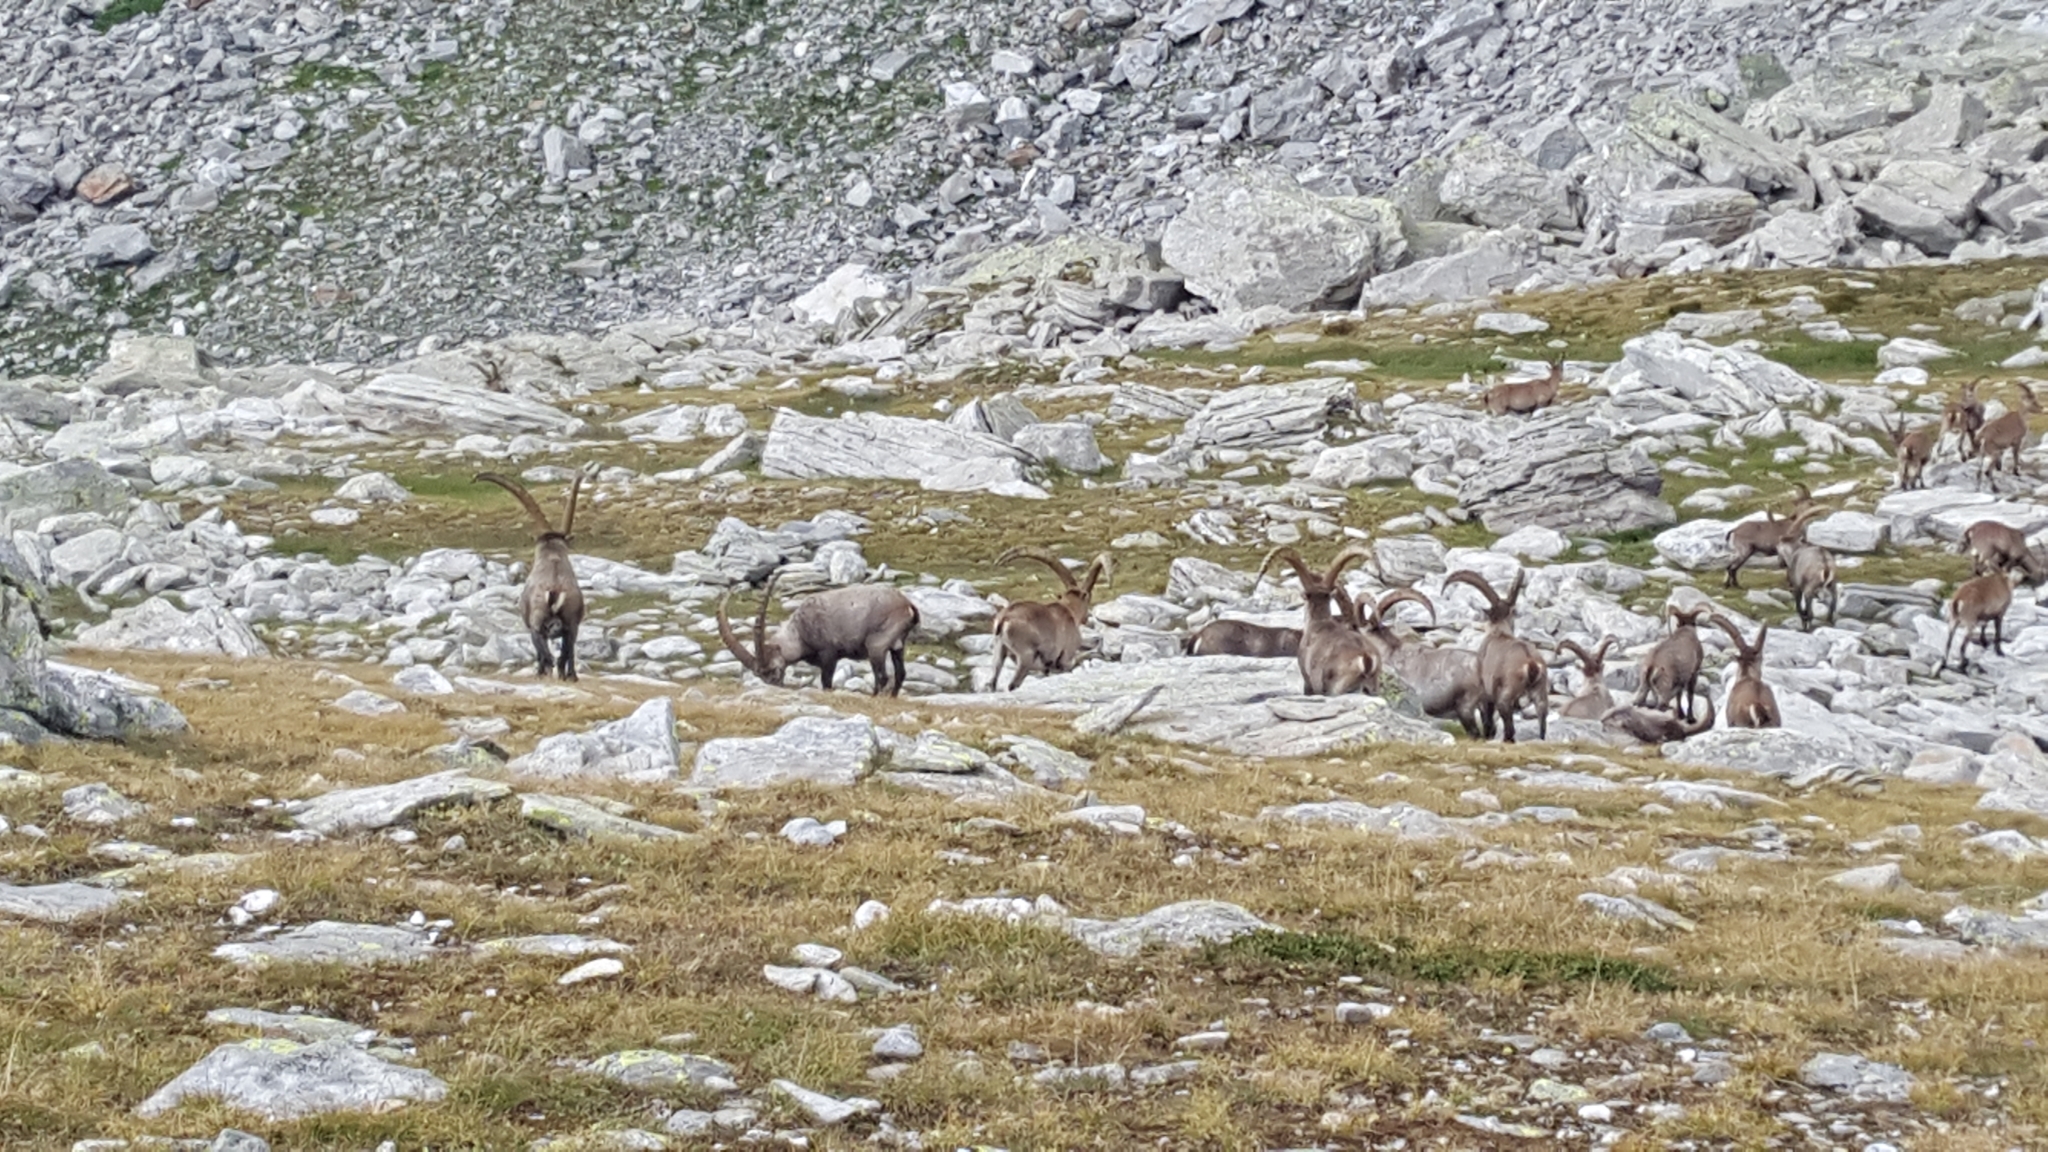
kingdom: Animalia
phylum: Chordata
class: Mammalia
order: Artiodactyla
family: Bovidae
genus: Capra
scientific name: Capra ibex
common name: Alpine ibex
